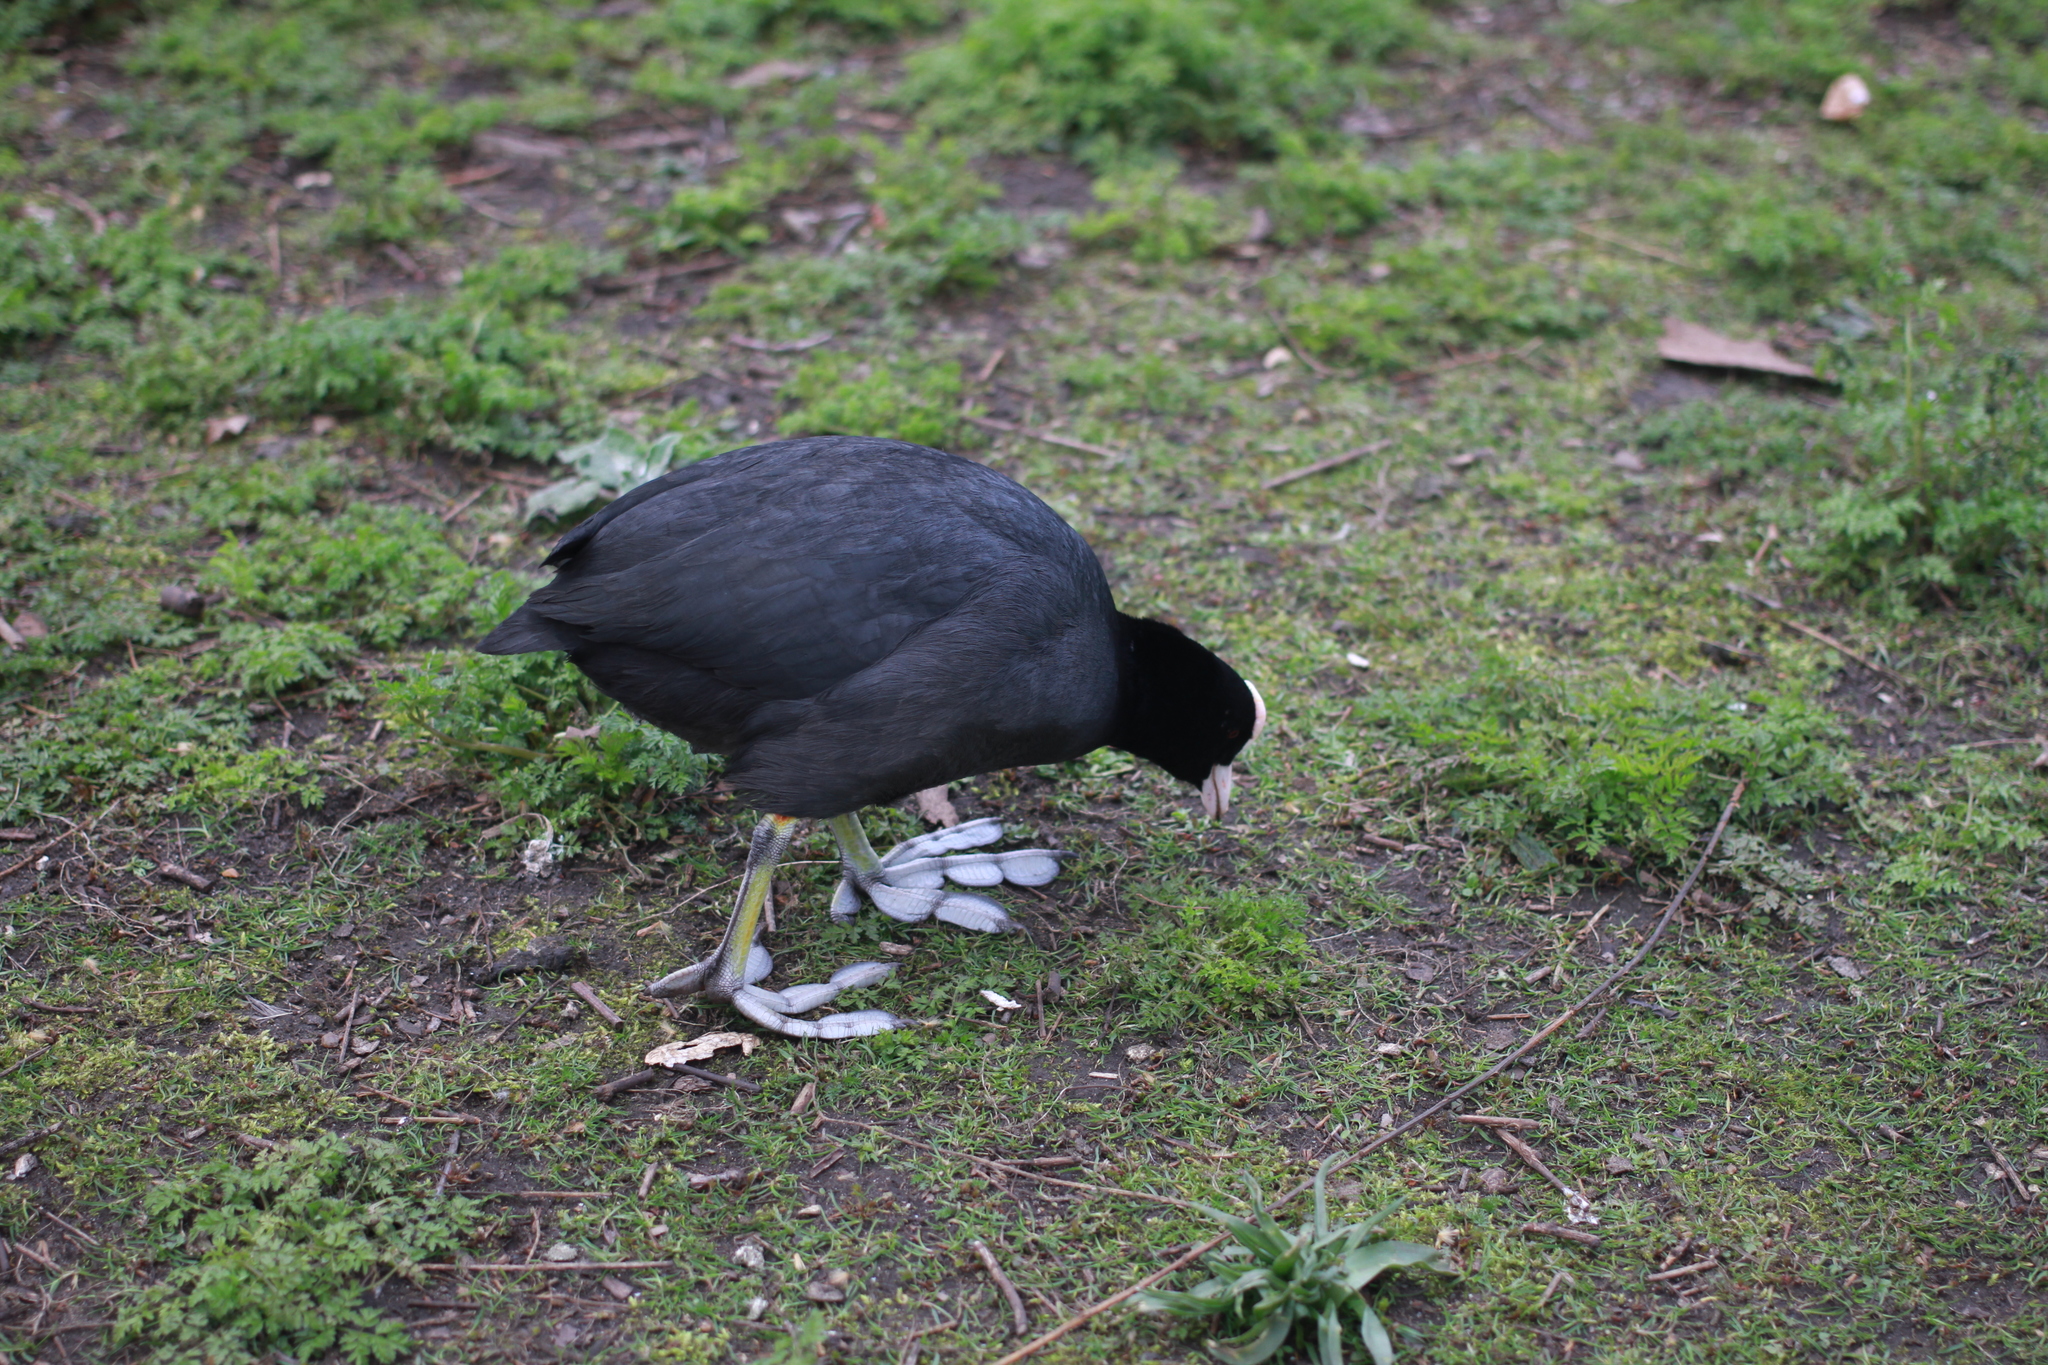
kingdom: Animalia
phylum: Chordata
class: Aves
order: Gruiformes
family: Rallidae
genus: Fulica
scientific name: Fulica atra
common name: Eurasian coot
